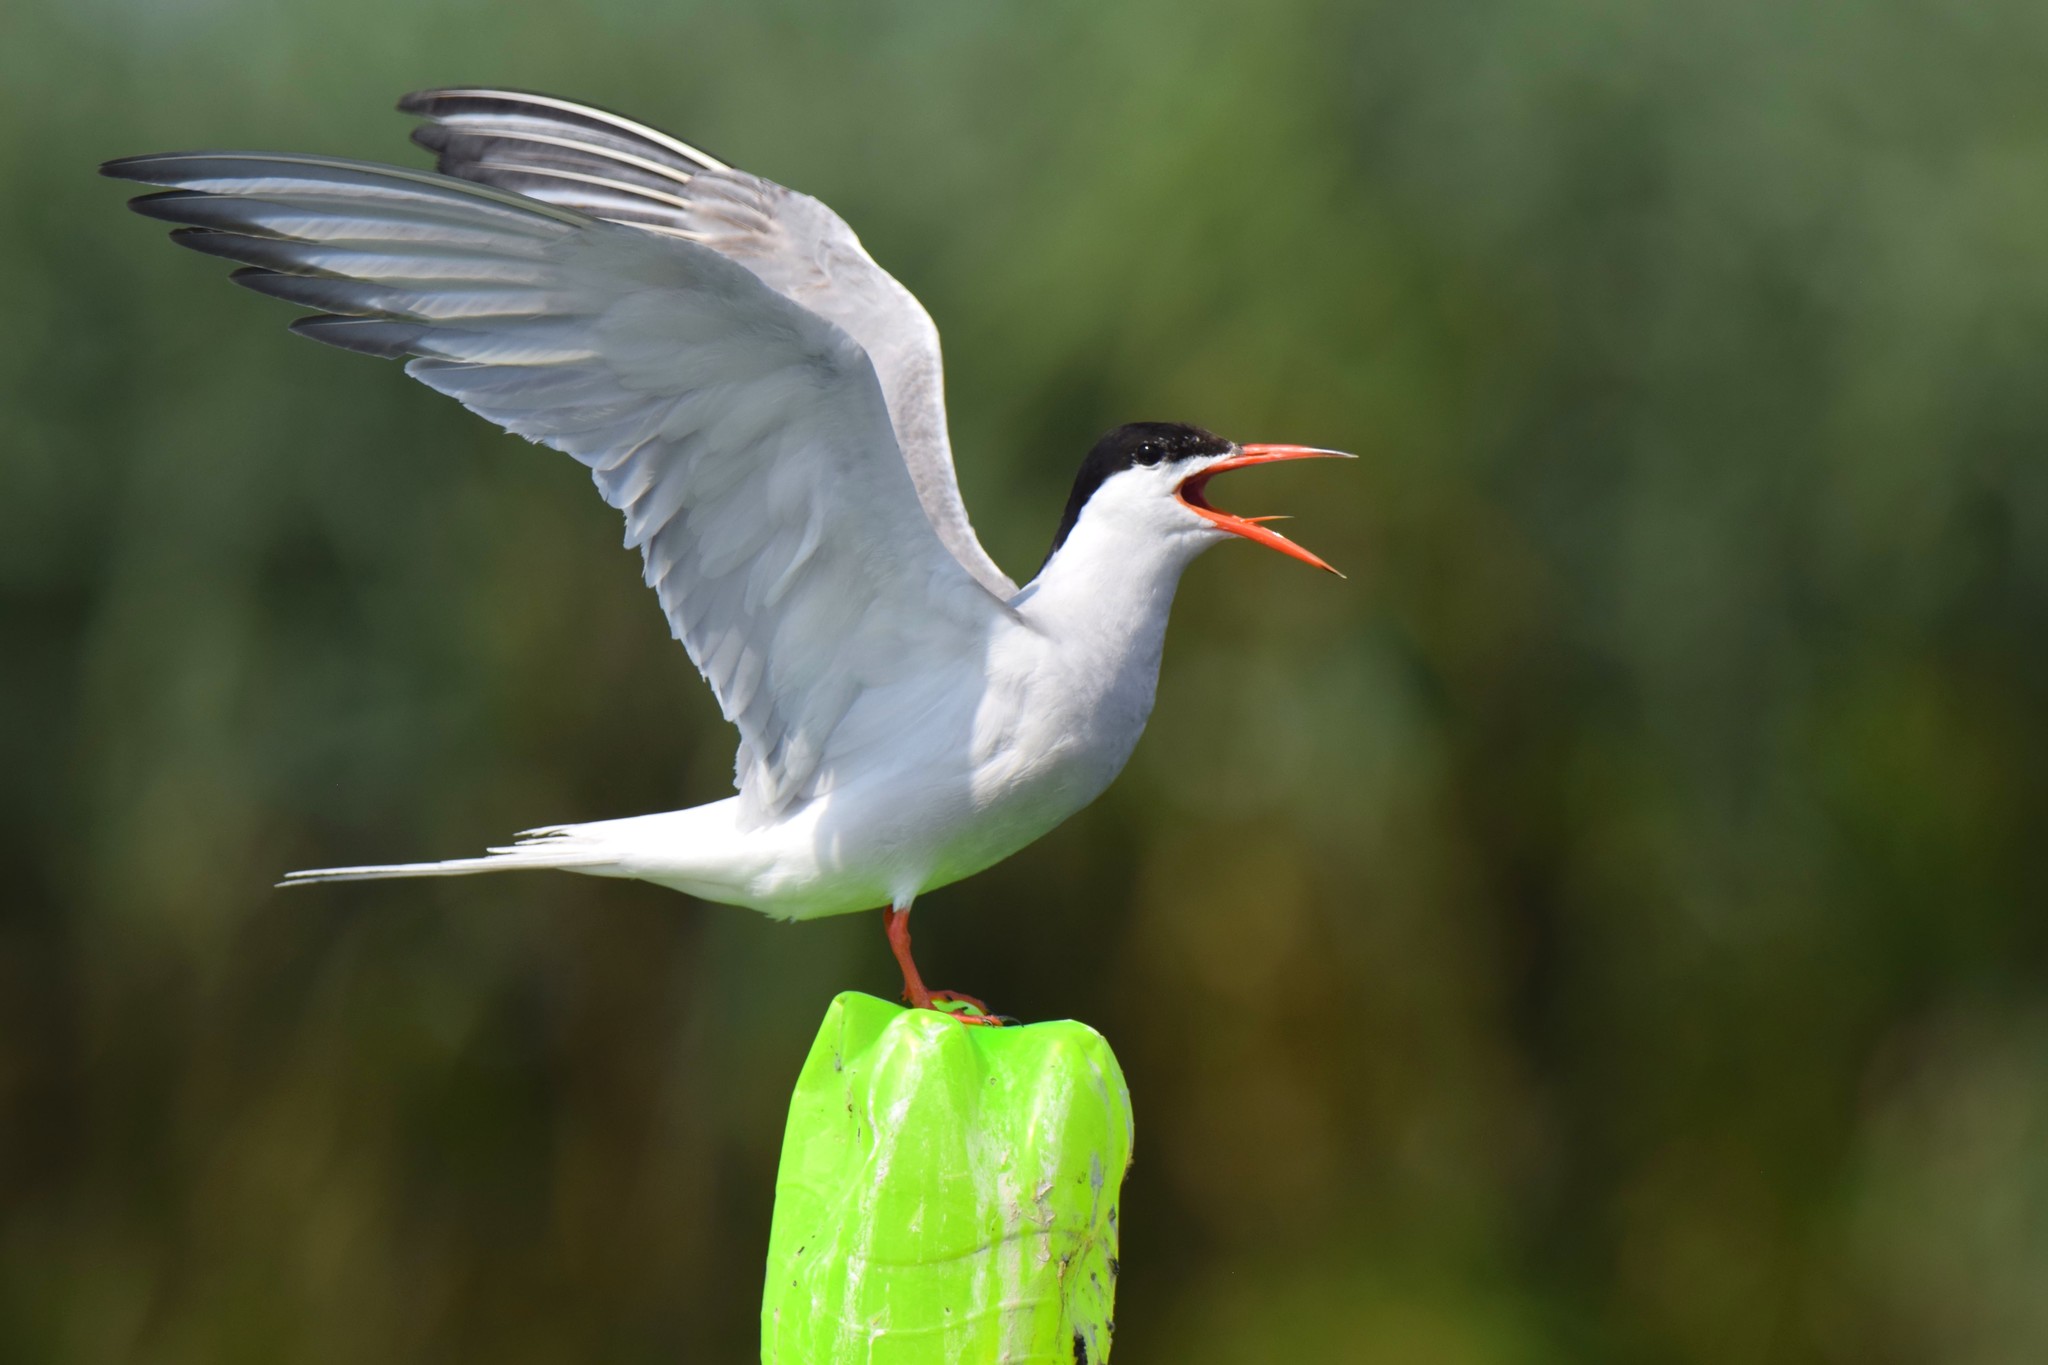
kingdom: Animalia
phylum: Chordata
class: Aves
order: Charadriiformes
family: Laridae
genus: Sterna
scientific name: Sterna hirundo
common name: Common tern
